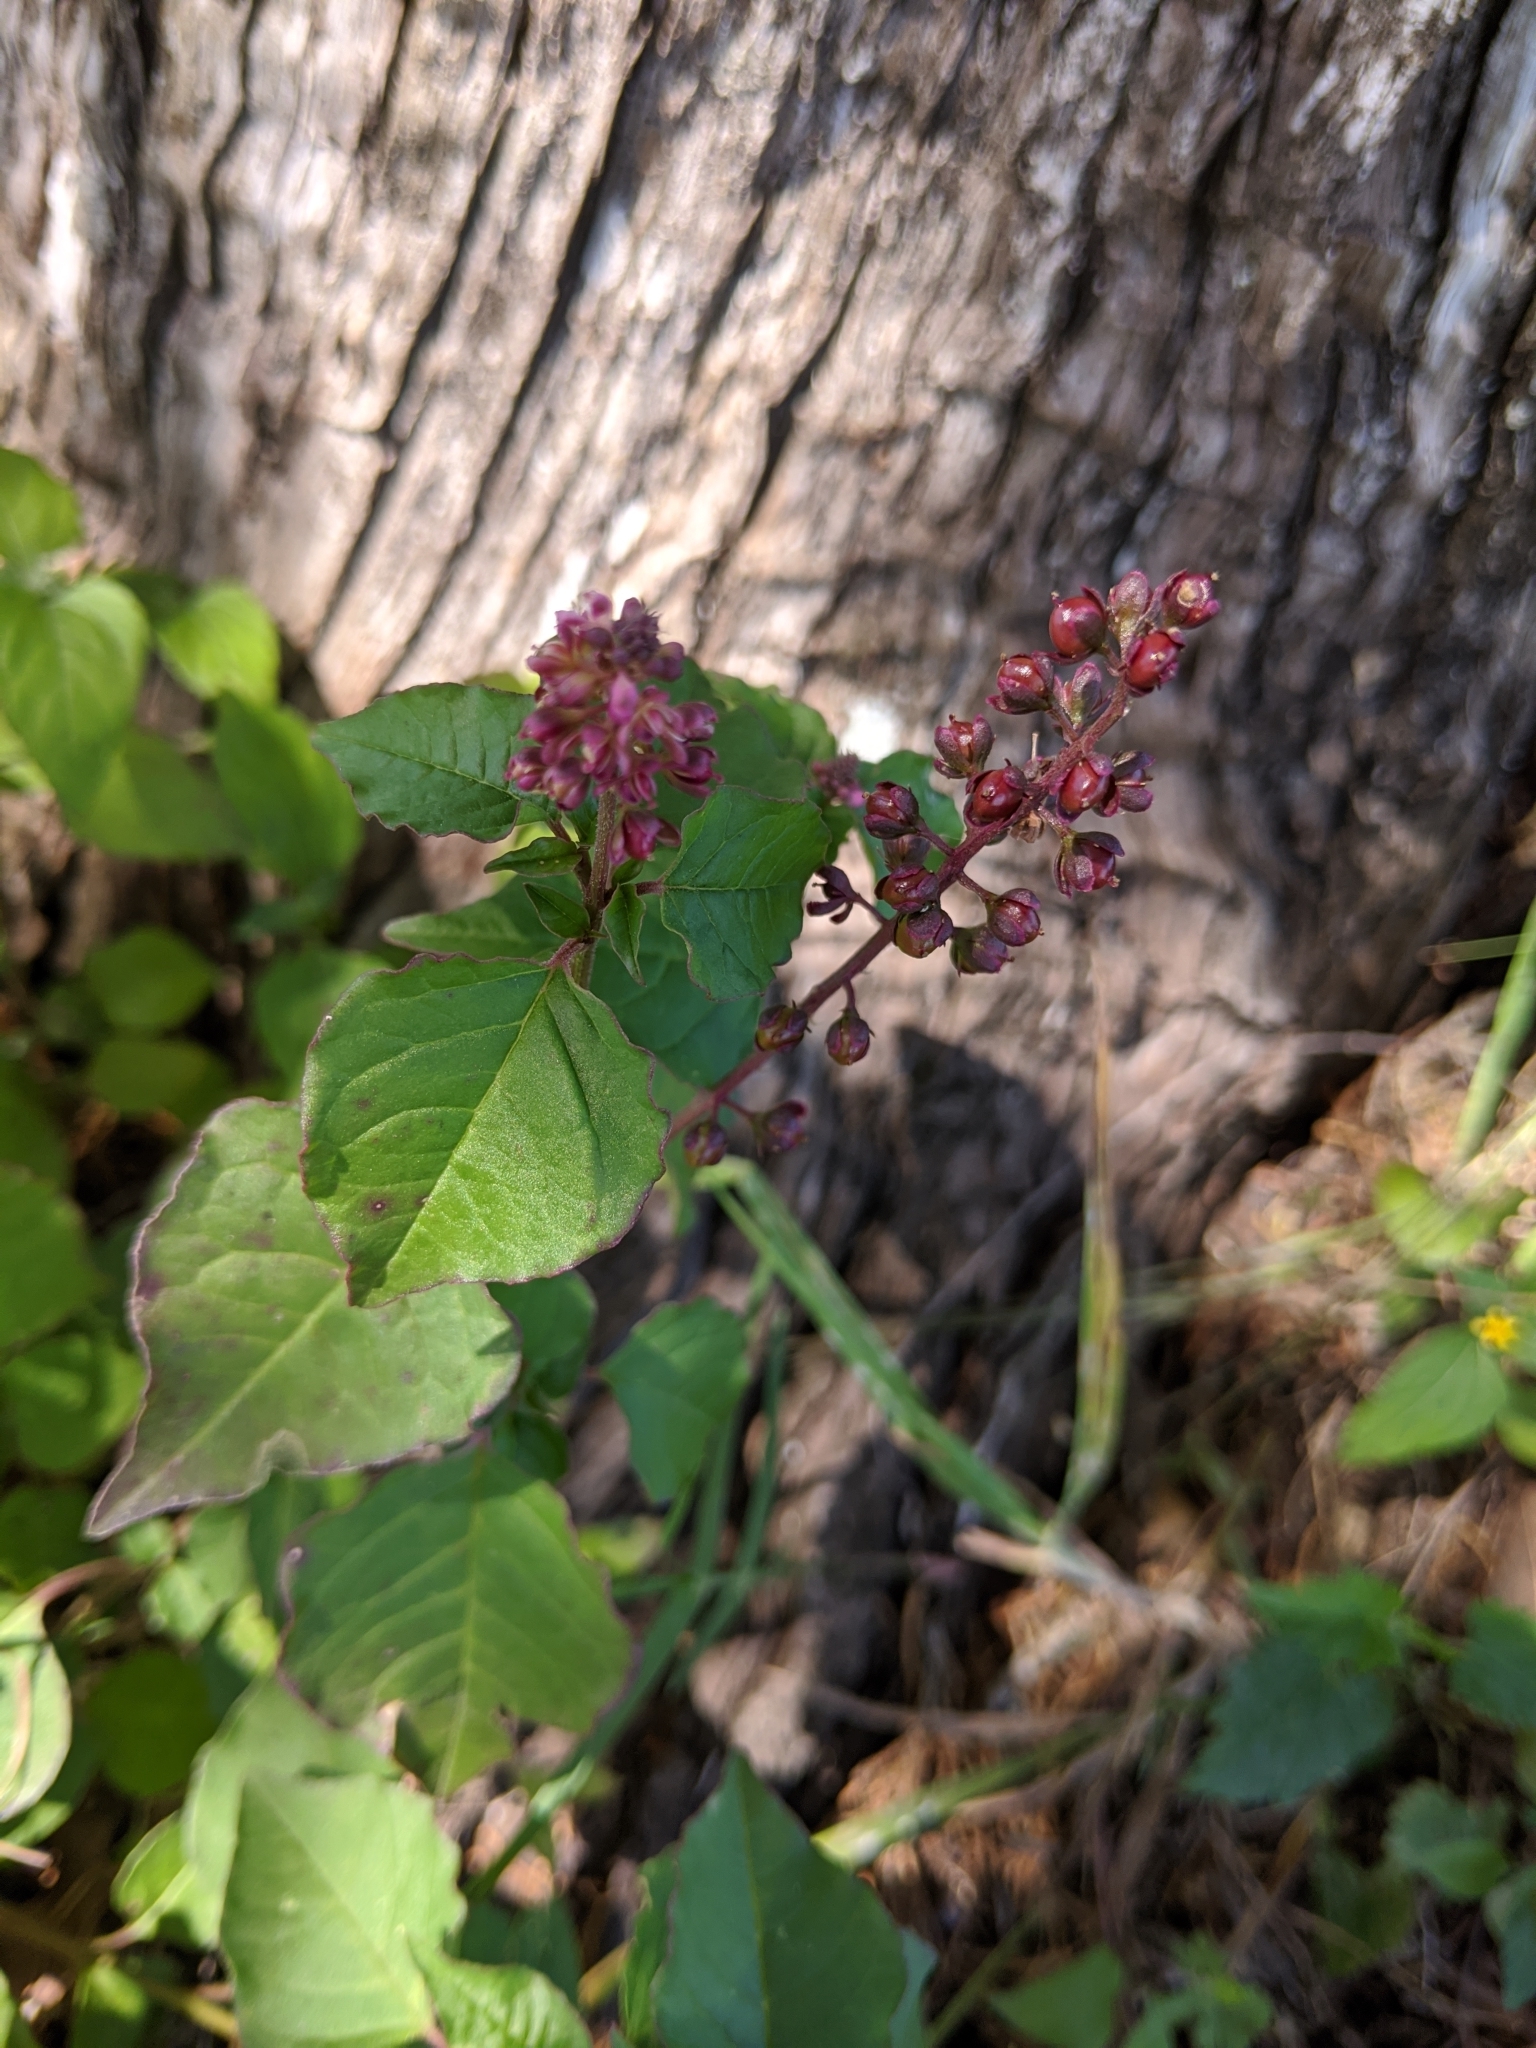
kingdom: Plantae
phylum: Tracheophyta
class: Magnoliopsida
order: Caryophyllales
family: Phytolaccaceae
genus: Rivina
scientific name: Rivina humilis
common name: Rougeplant
